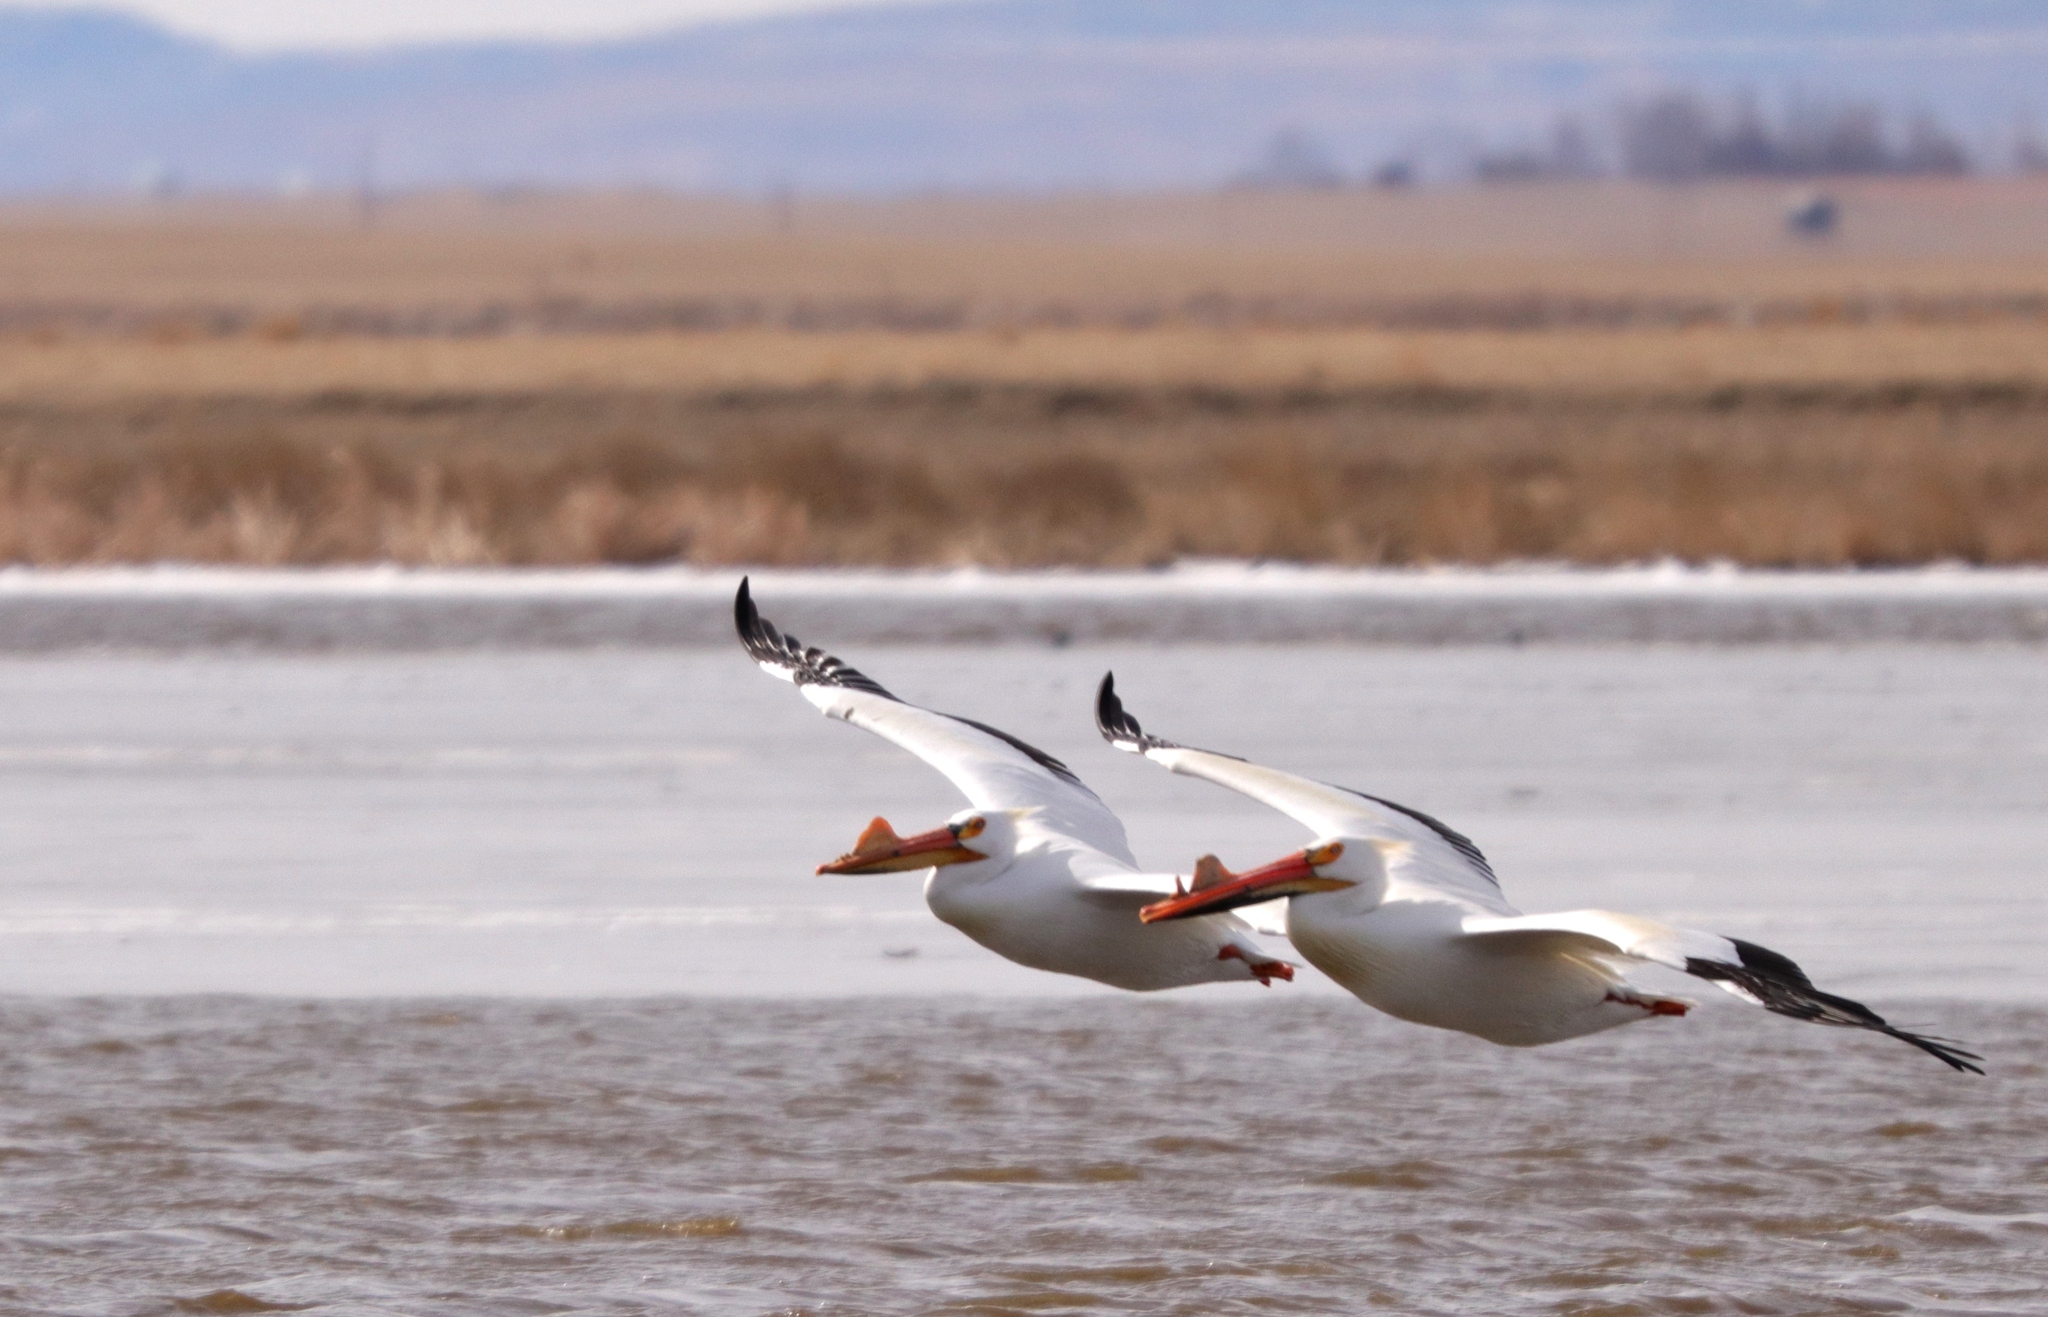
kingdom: Animalia
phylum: Chordata
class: Aves
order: Pelecaniformes
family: Pelecanidae
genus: Pelecanus
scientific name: Pelecanus erythrorhynchos
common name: American white pelican
